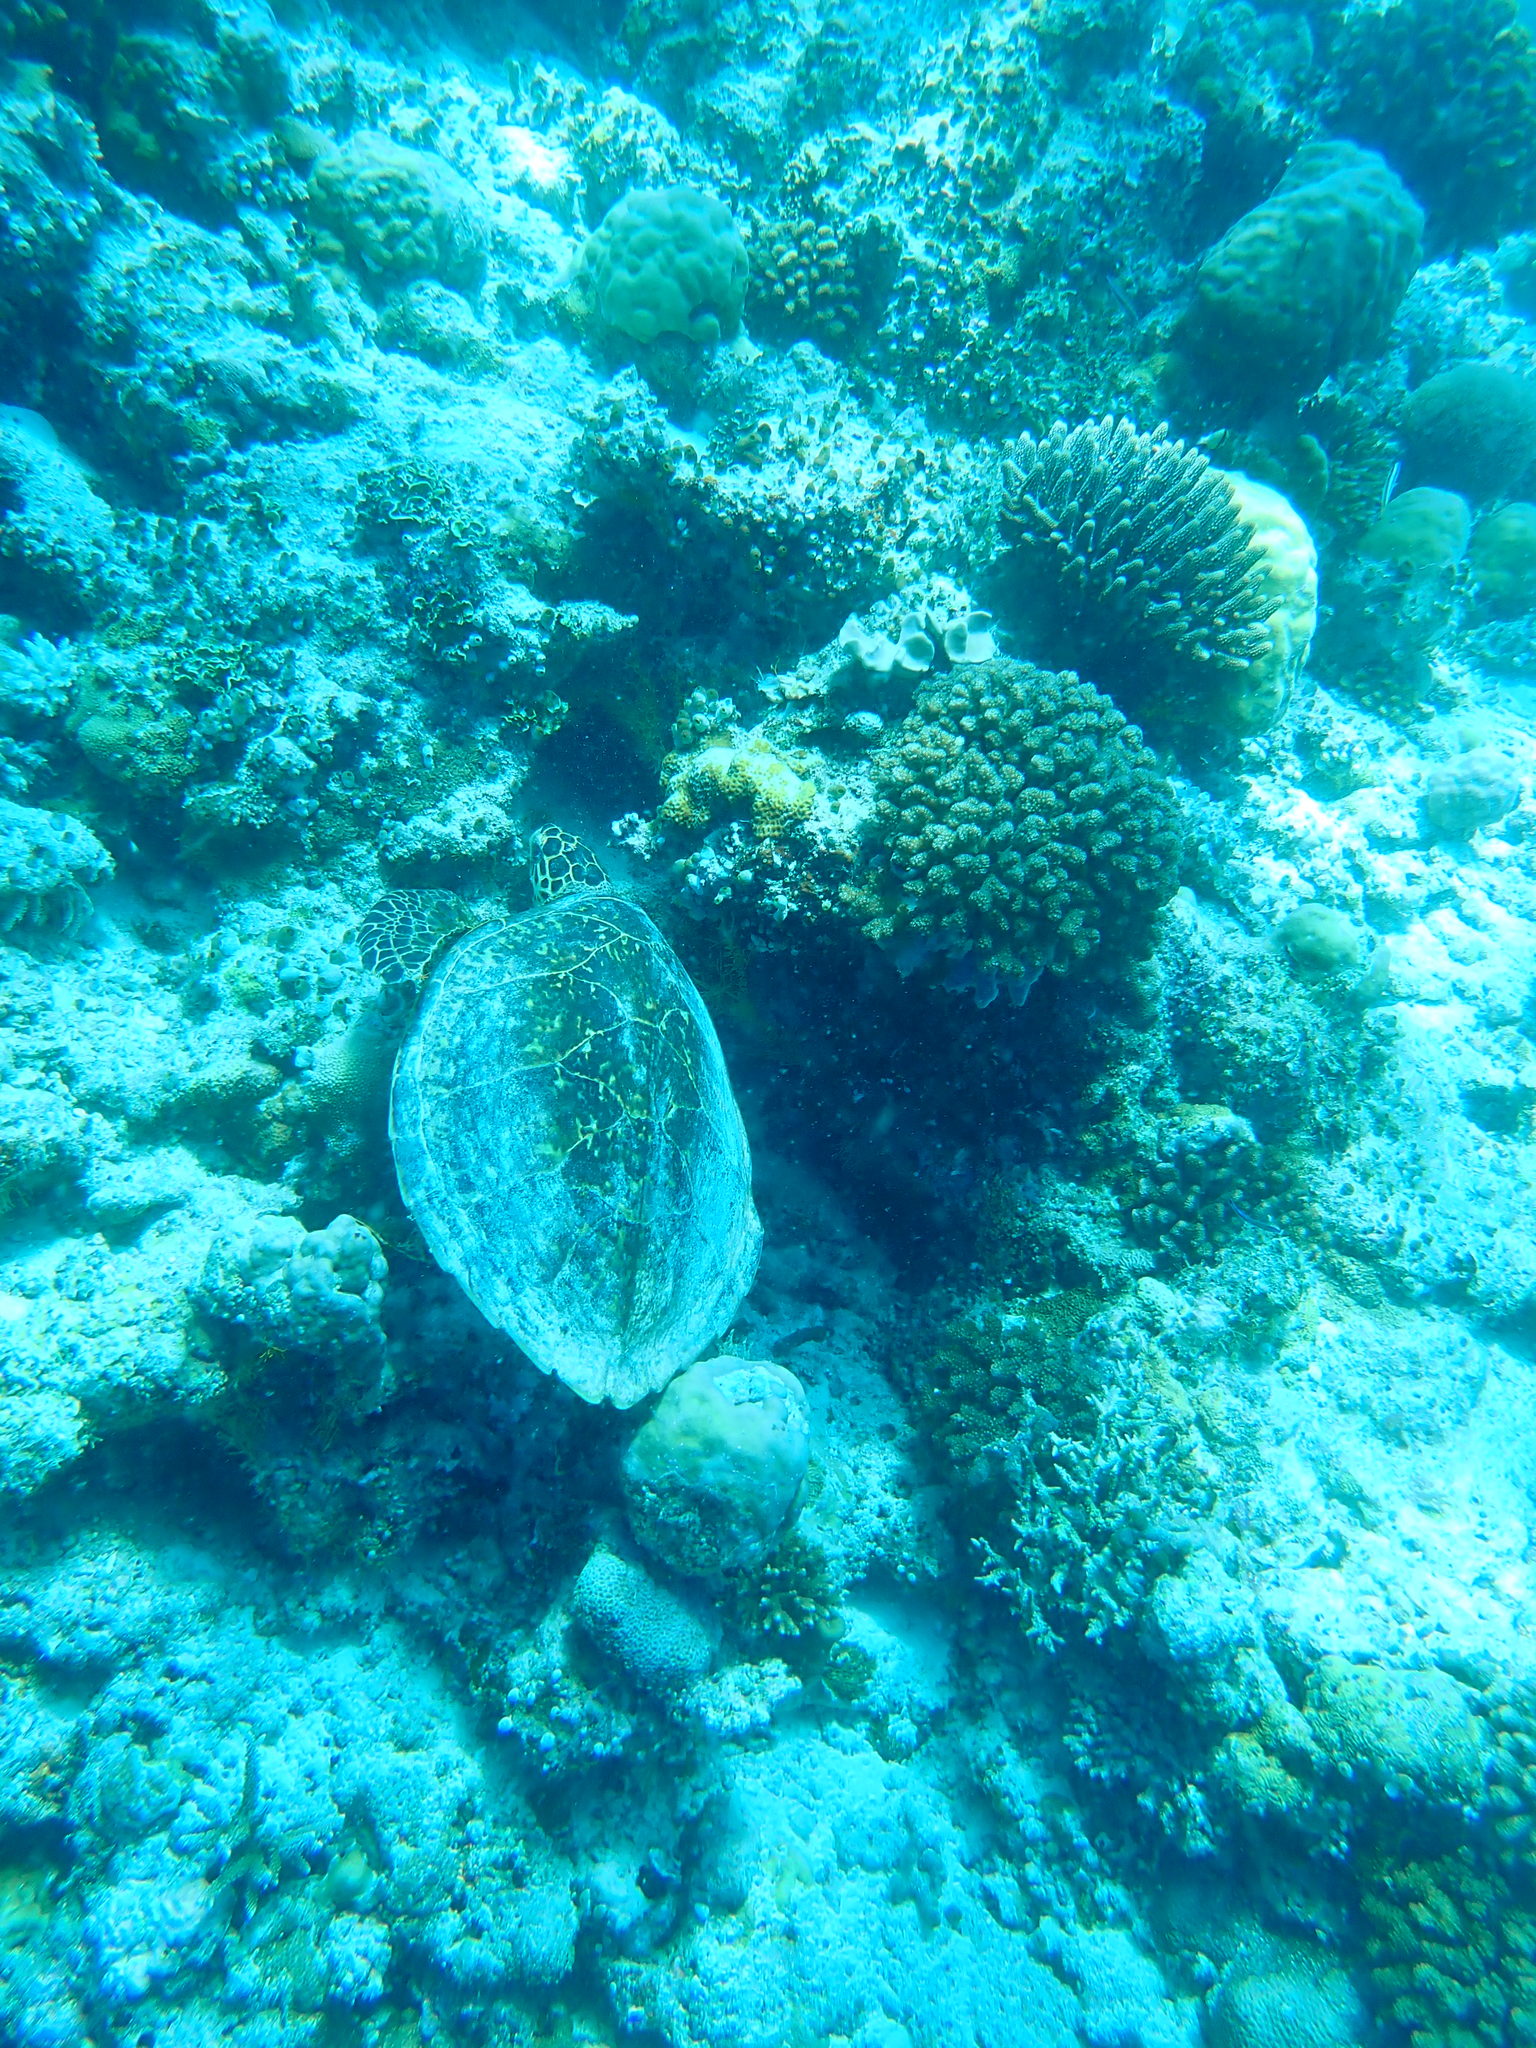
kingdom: Animalia
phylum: Chordata
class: Testudines
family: Cheloniidae
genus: Eretmochelys
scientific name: Eretmochelys imbricata
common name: Hawksbill turtle
